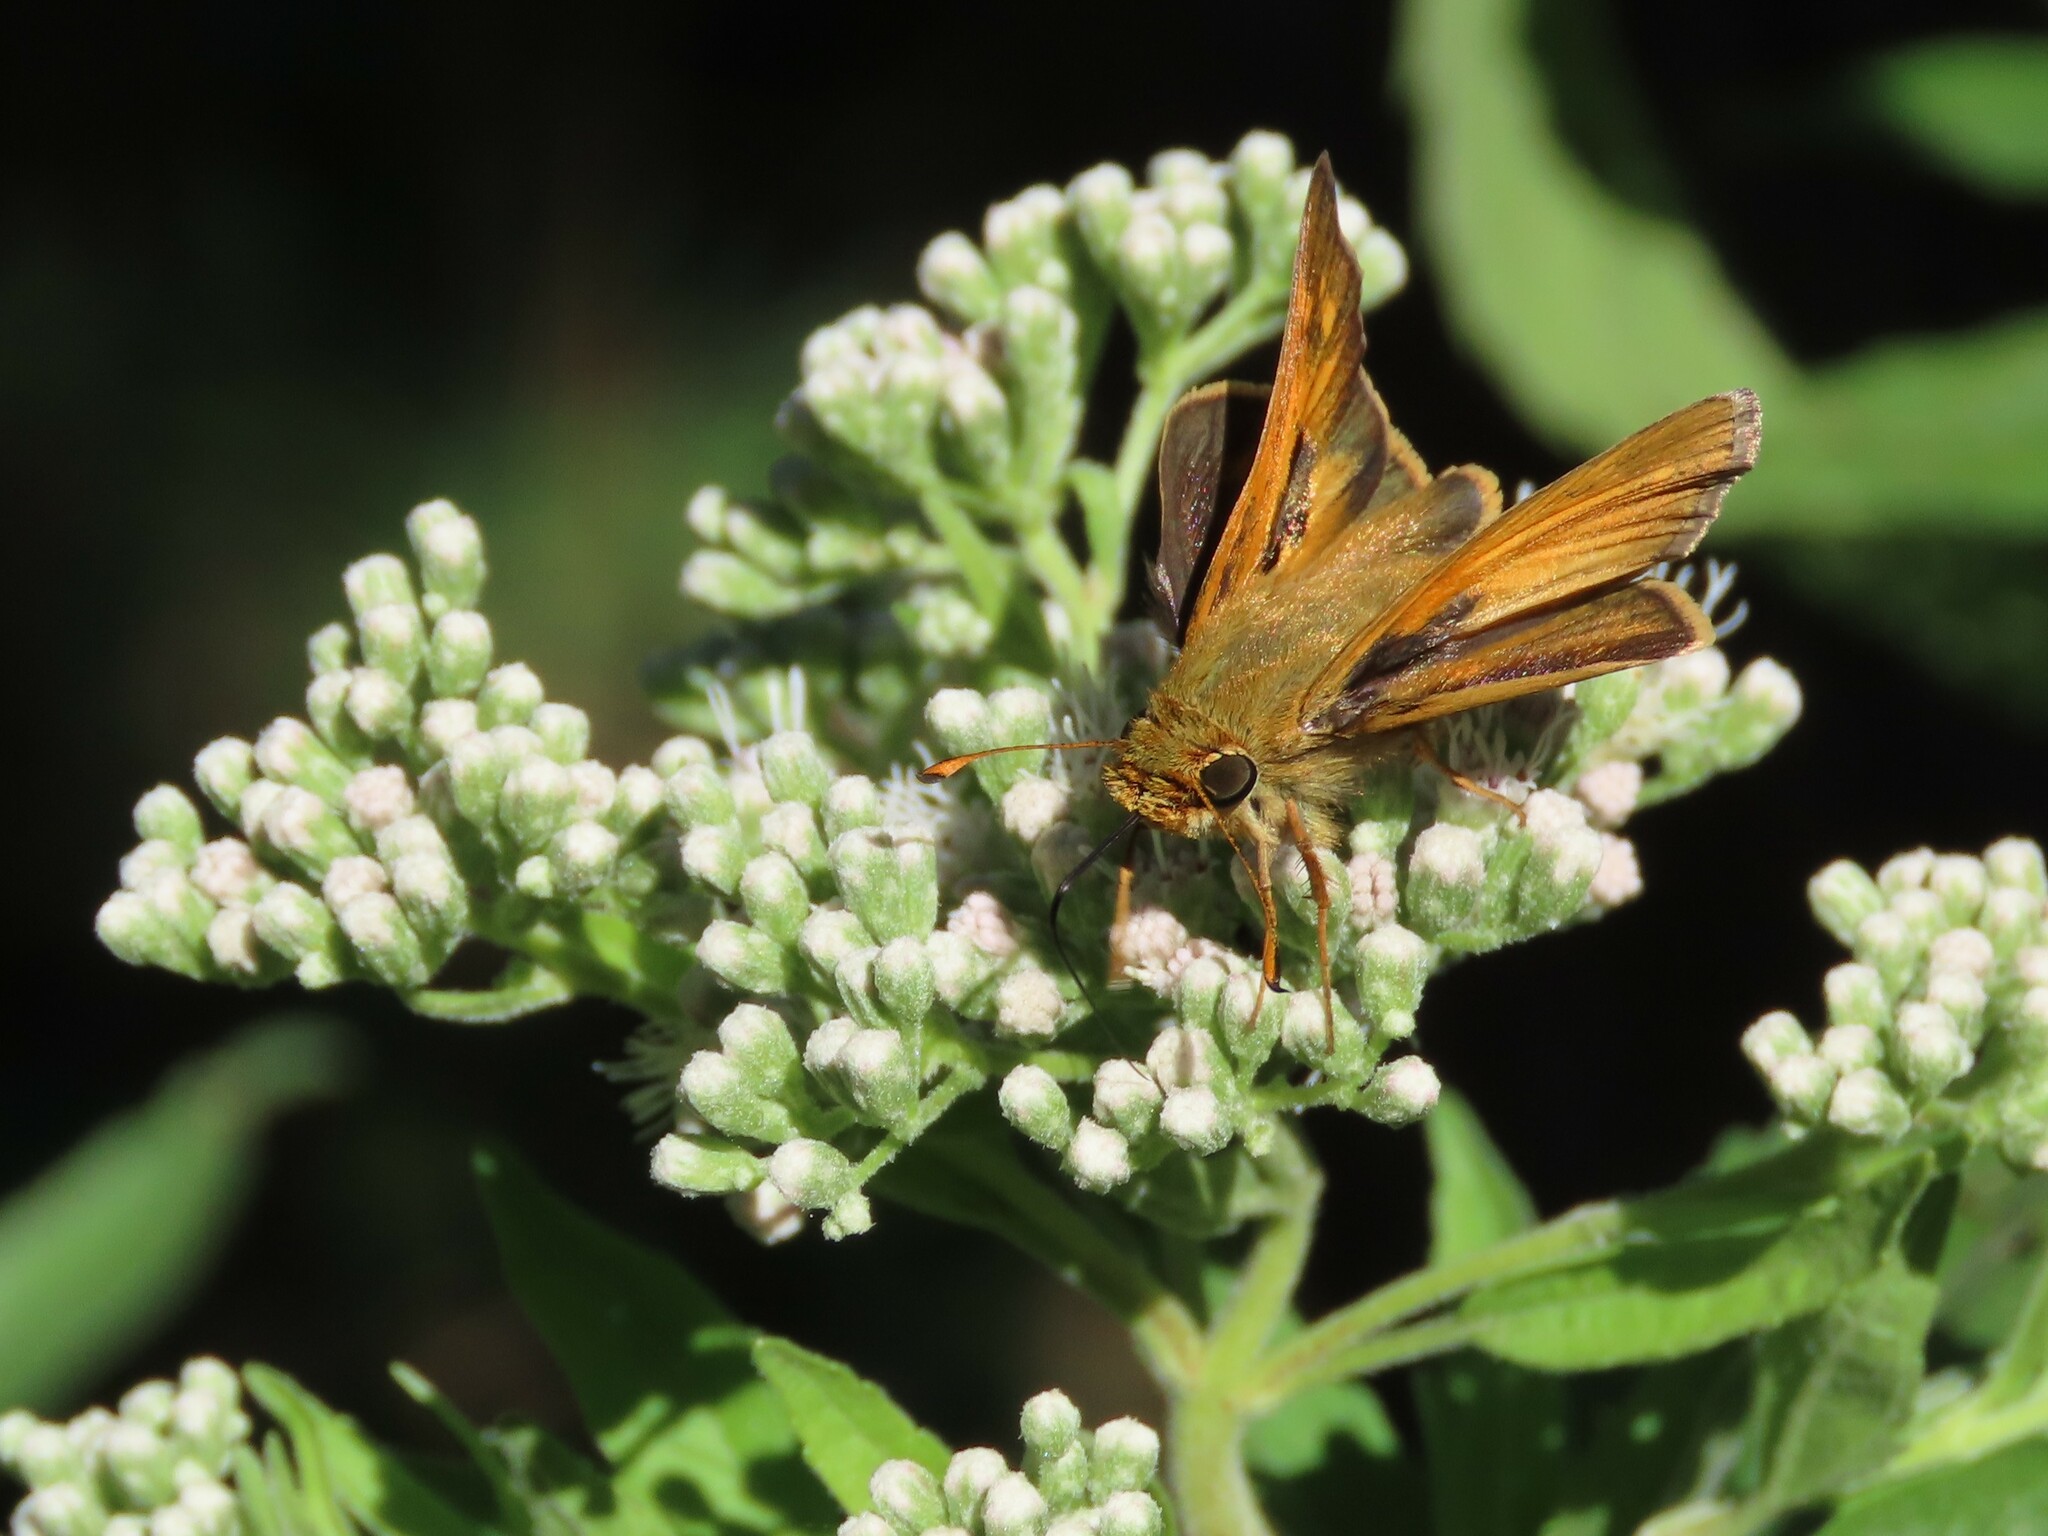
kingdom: Animalia
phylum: Arthropoda
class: Insecta
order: Lepidoptera
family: Hesperiidae
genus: Atalopedes
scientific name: Atalopedes
